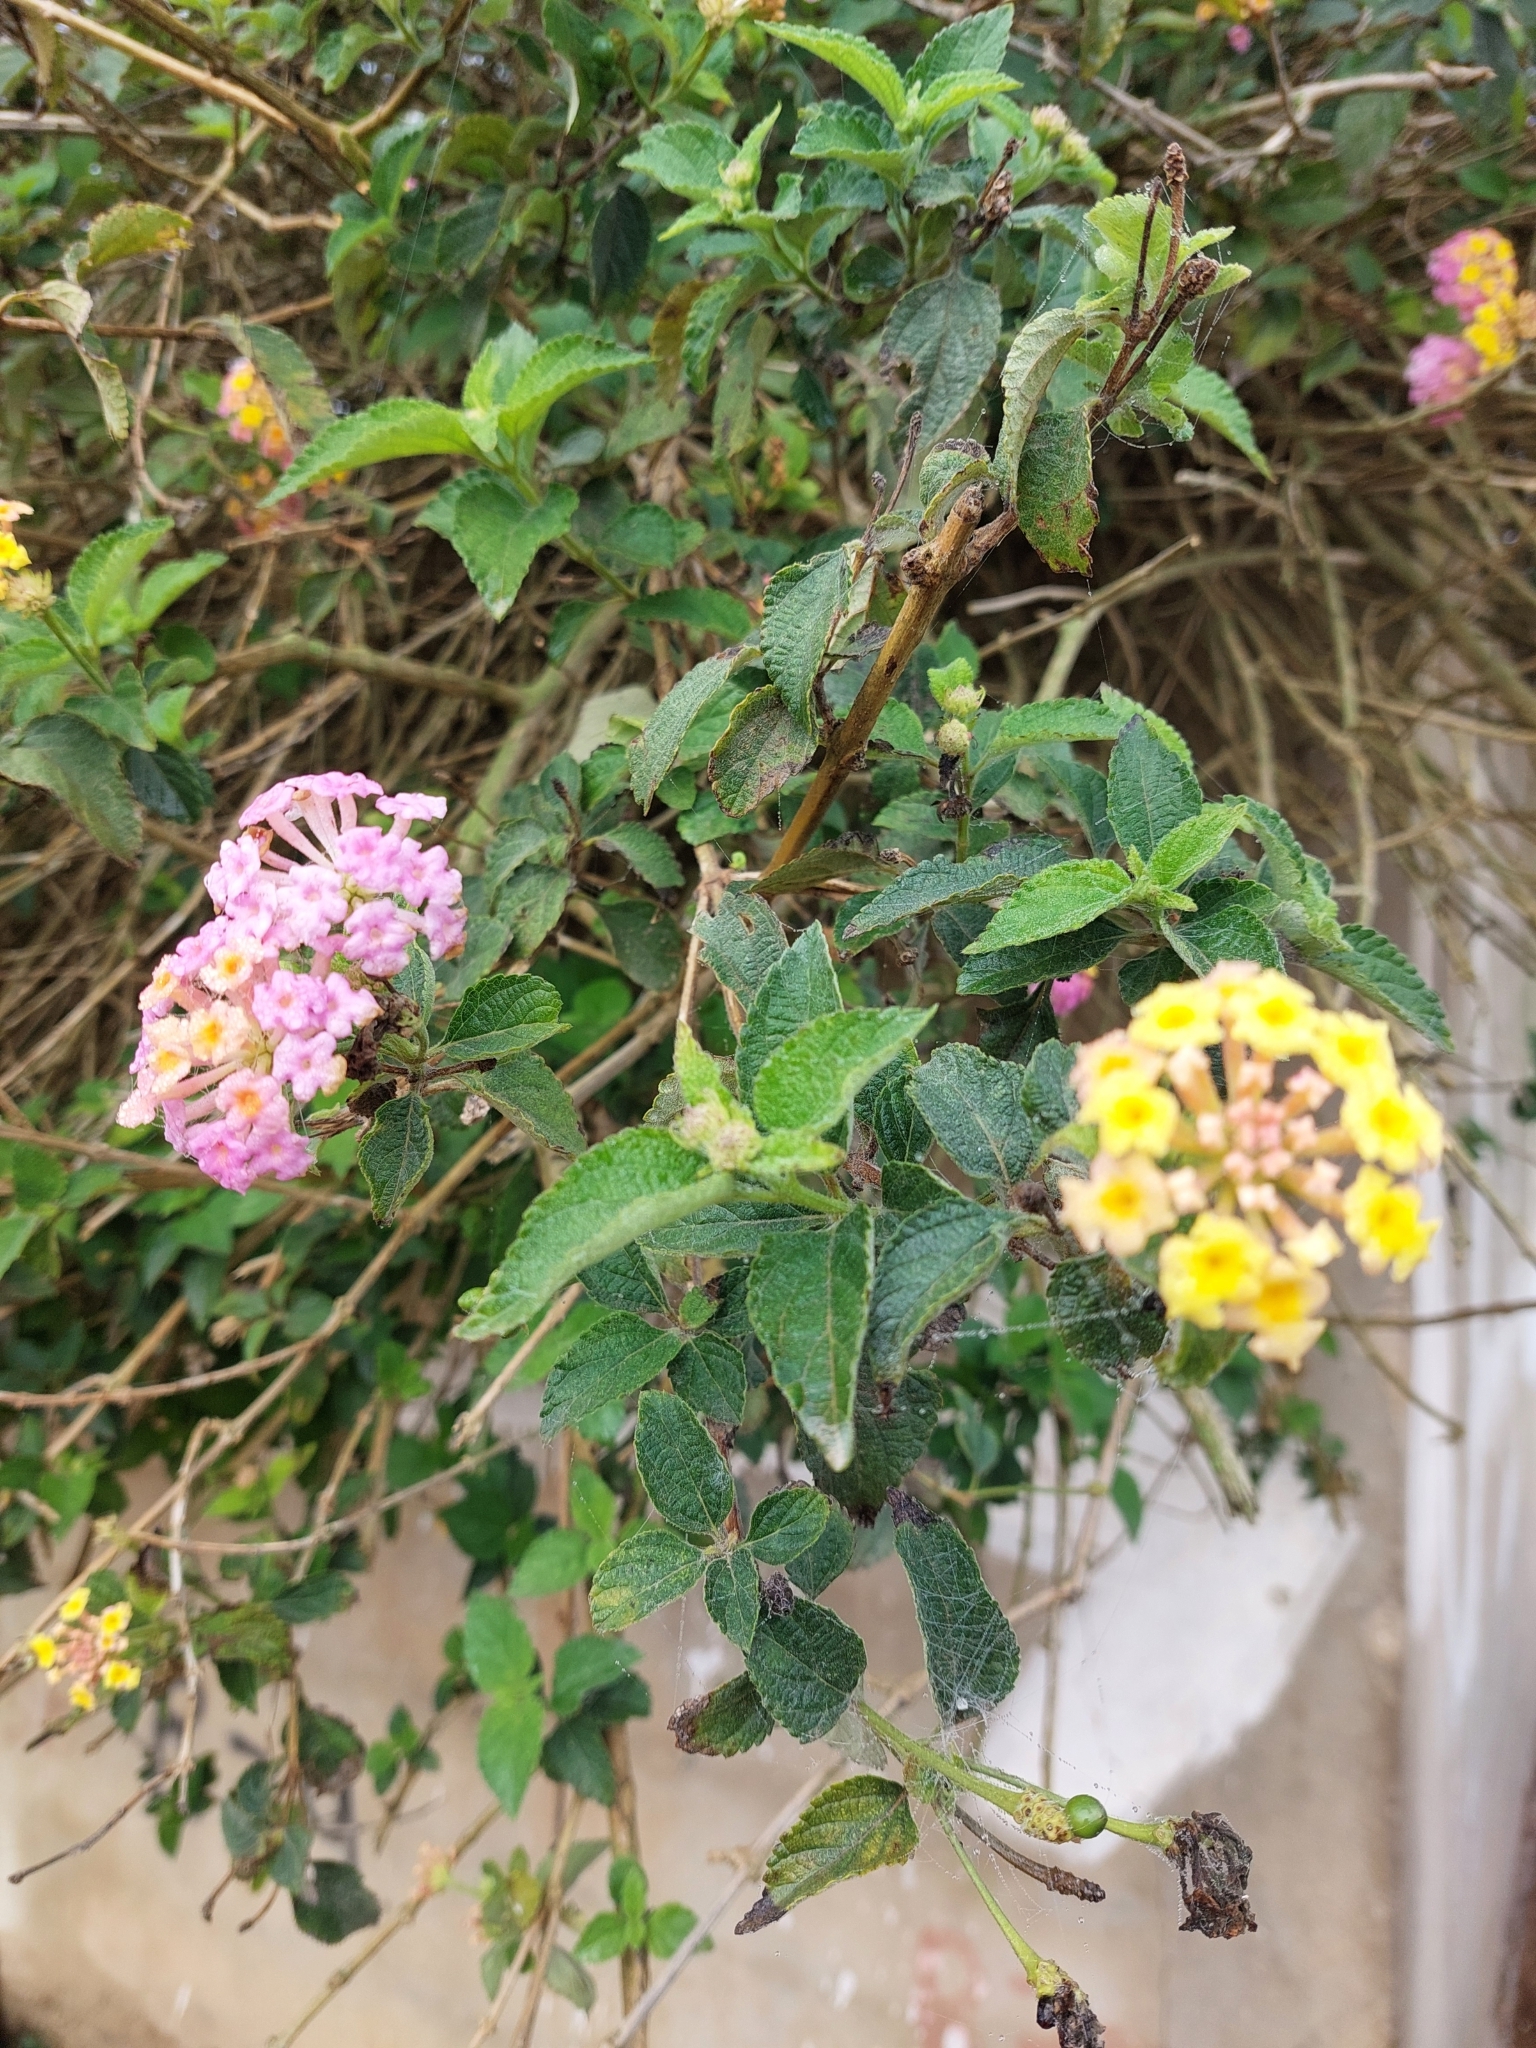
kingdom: Plantae
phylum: Tracheophyta
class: Magnoliopsida
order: Lamiales
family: Verbenaceae
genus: Lantana
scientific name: Lantana camara
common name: Lantana
